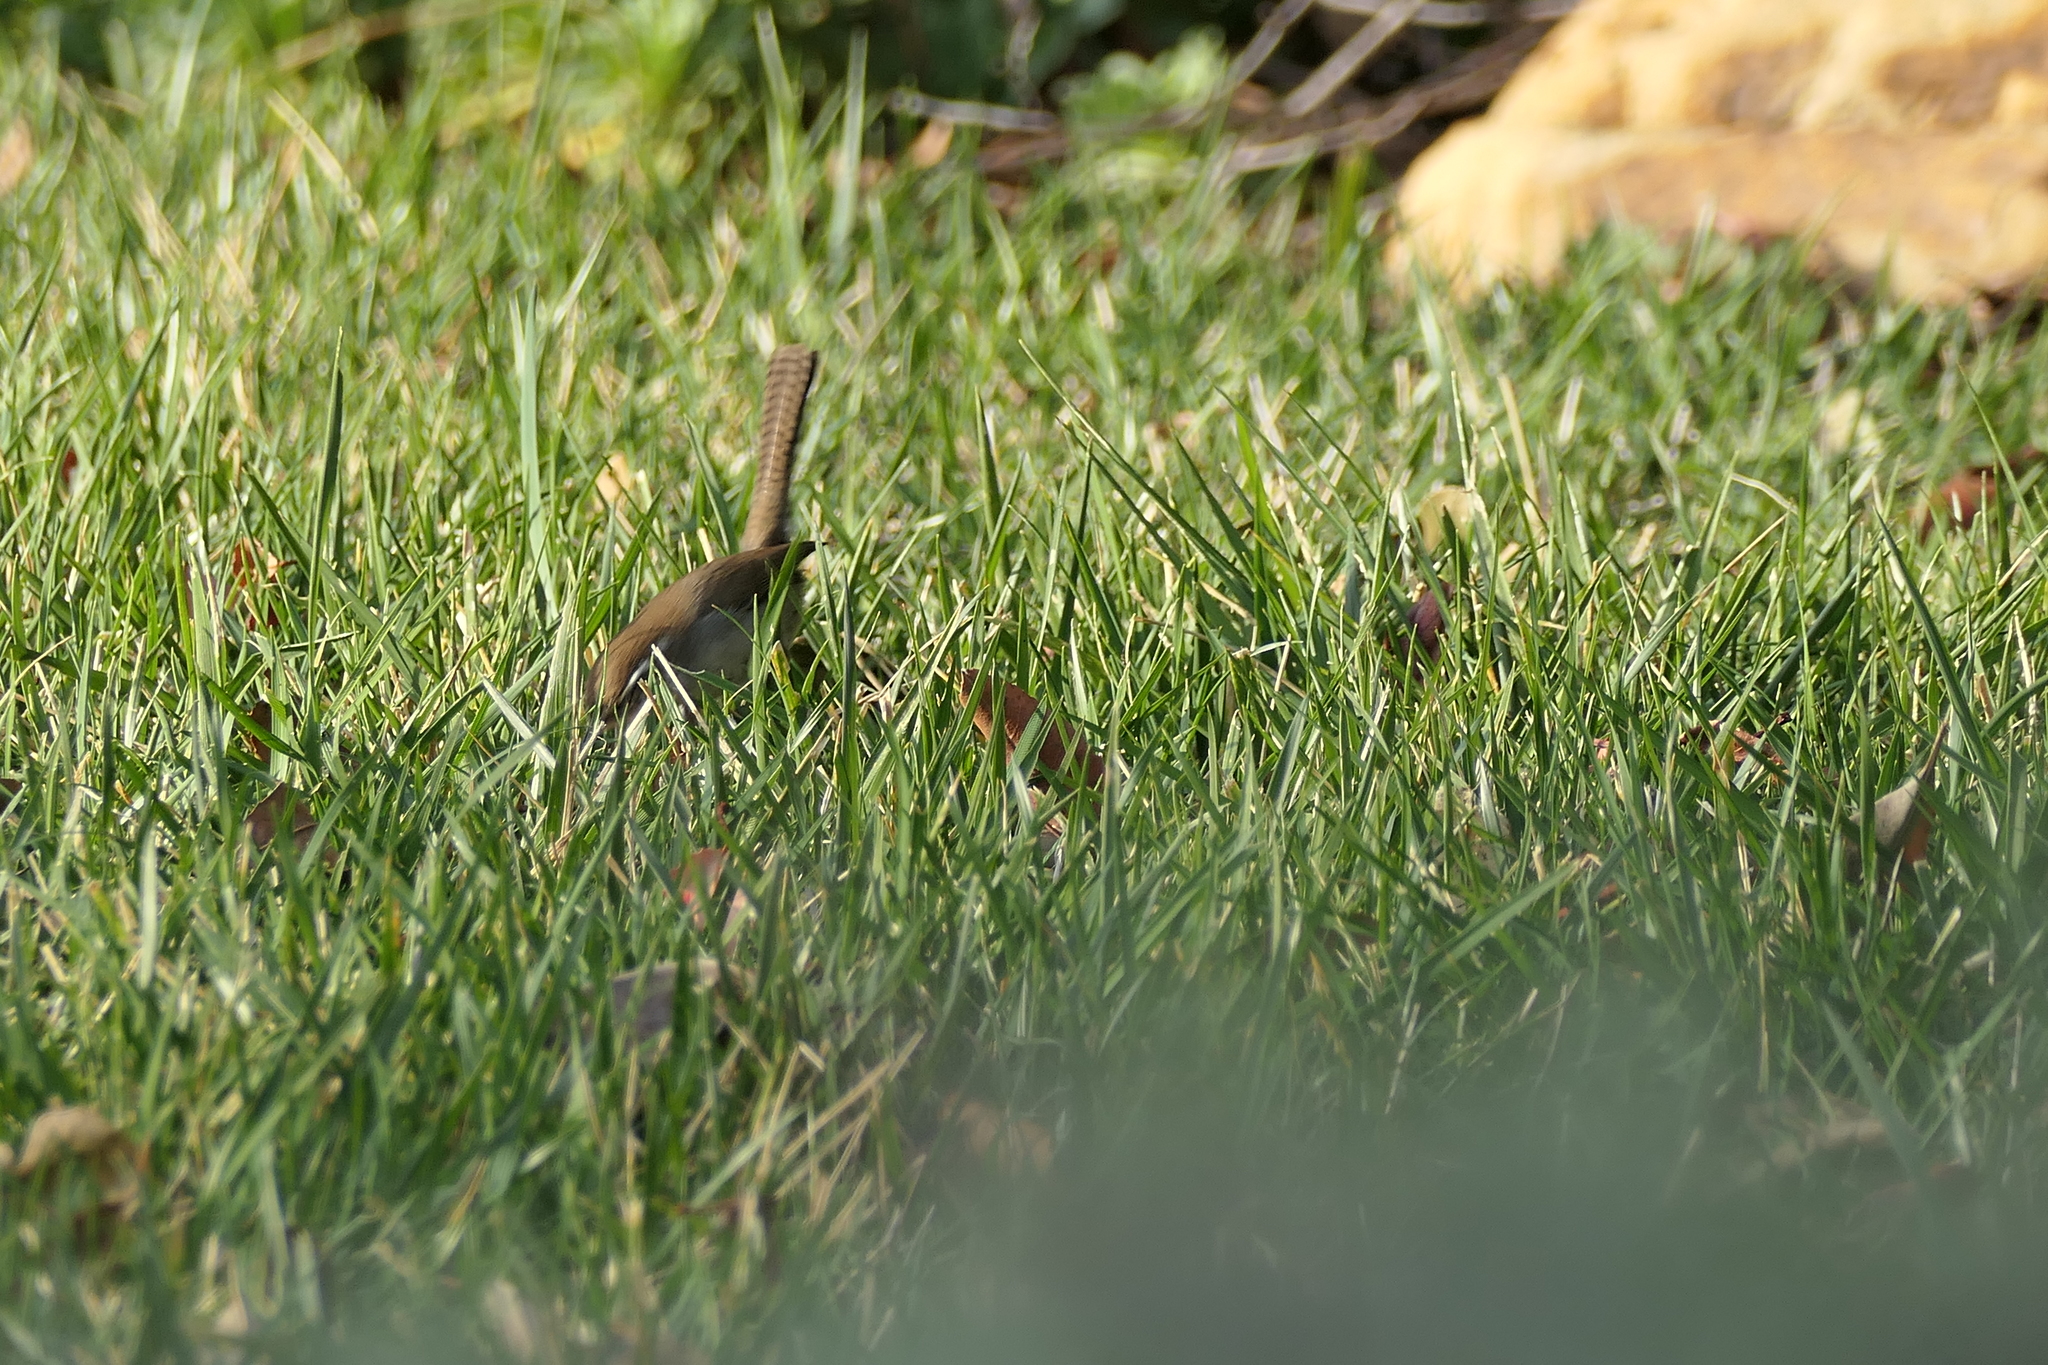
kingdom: Animalia
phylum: Chordata
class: Aves
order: Passeriformes
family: Troglodytidae
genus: Thryomanes
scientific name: Thryomanes bewickii
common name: Bewick's wren
